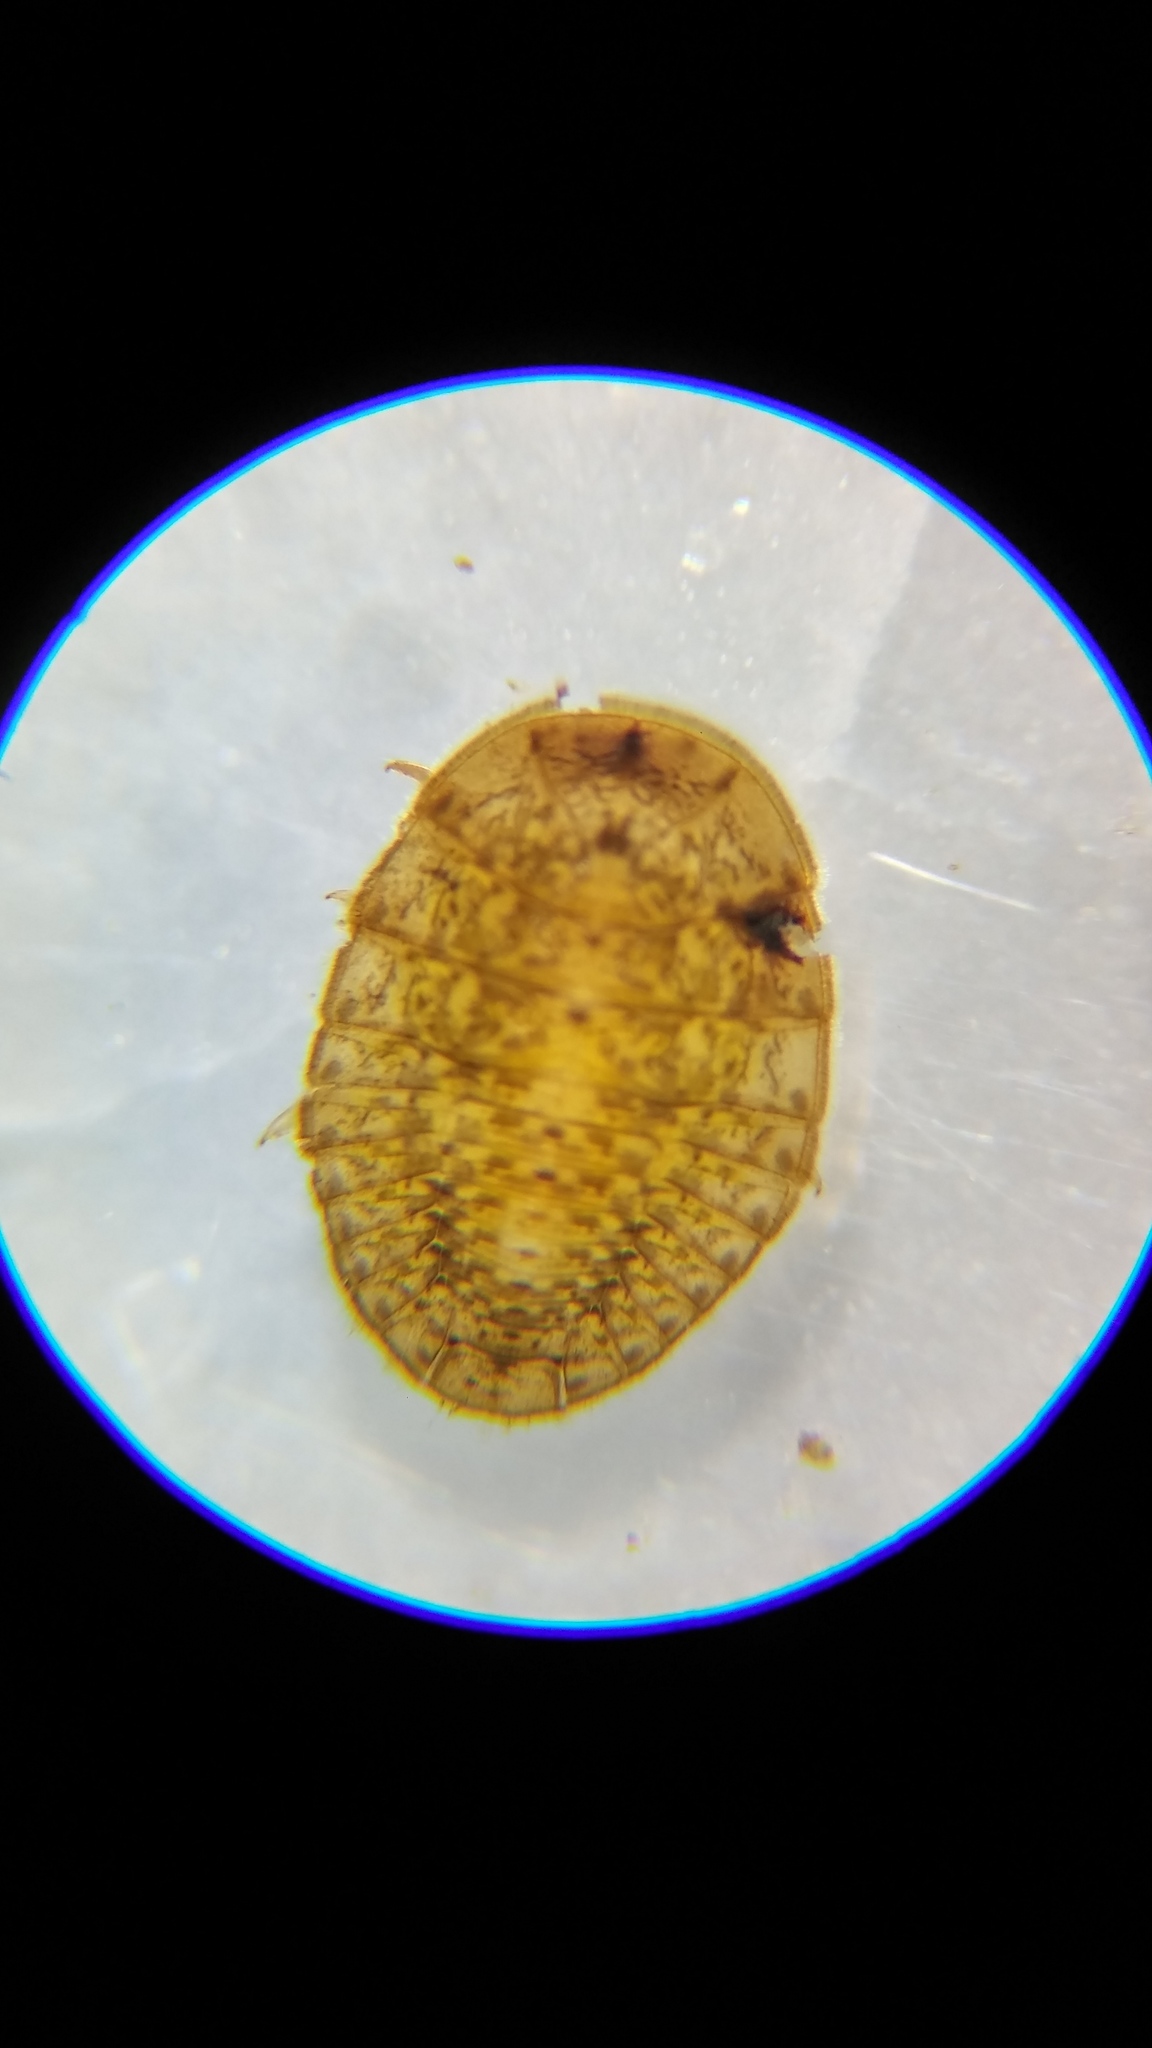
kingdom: Animalia
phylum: Arthropoda
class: Insecta
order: Coleoptera
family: Psephenidae
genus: Psephenus
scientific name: Psephenus herricki
